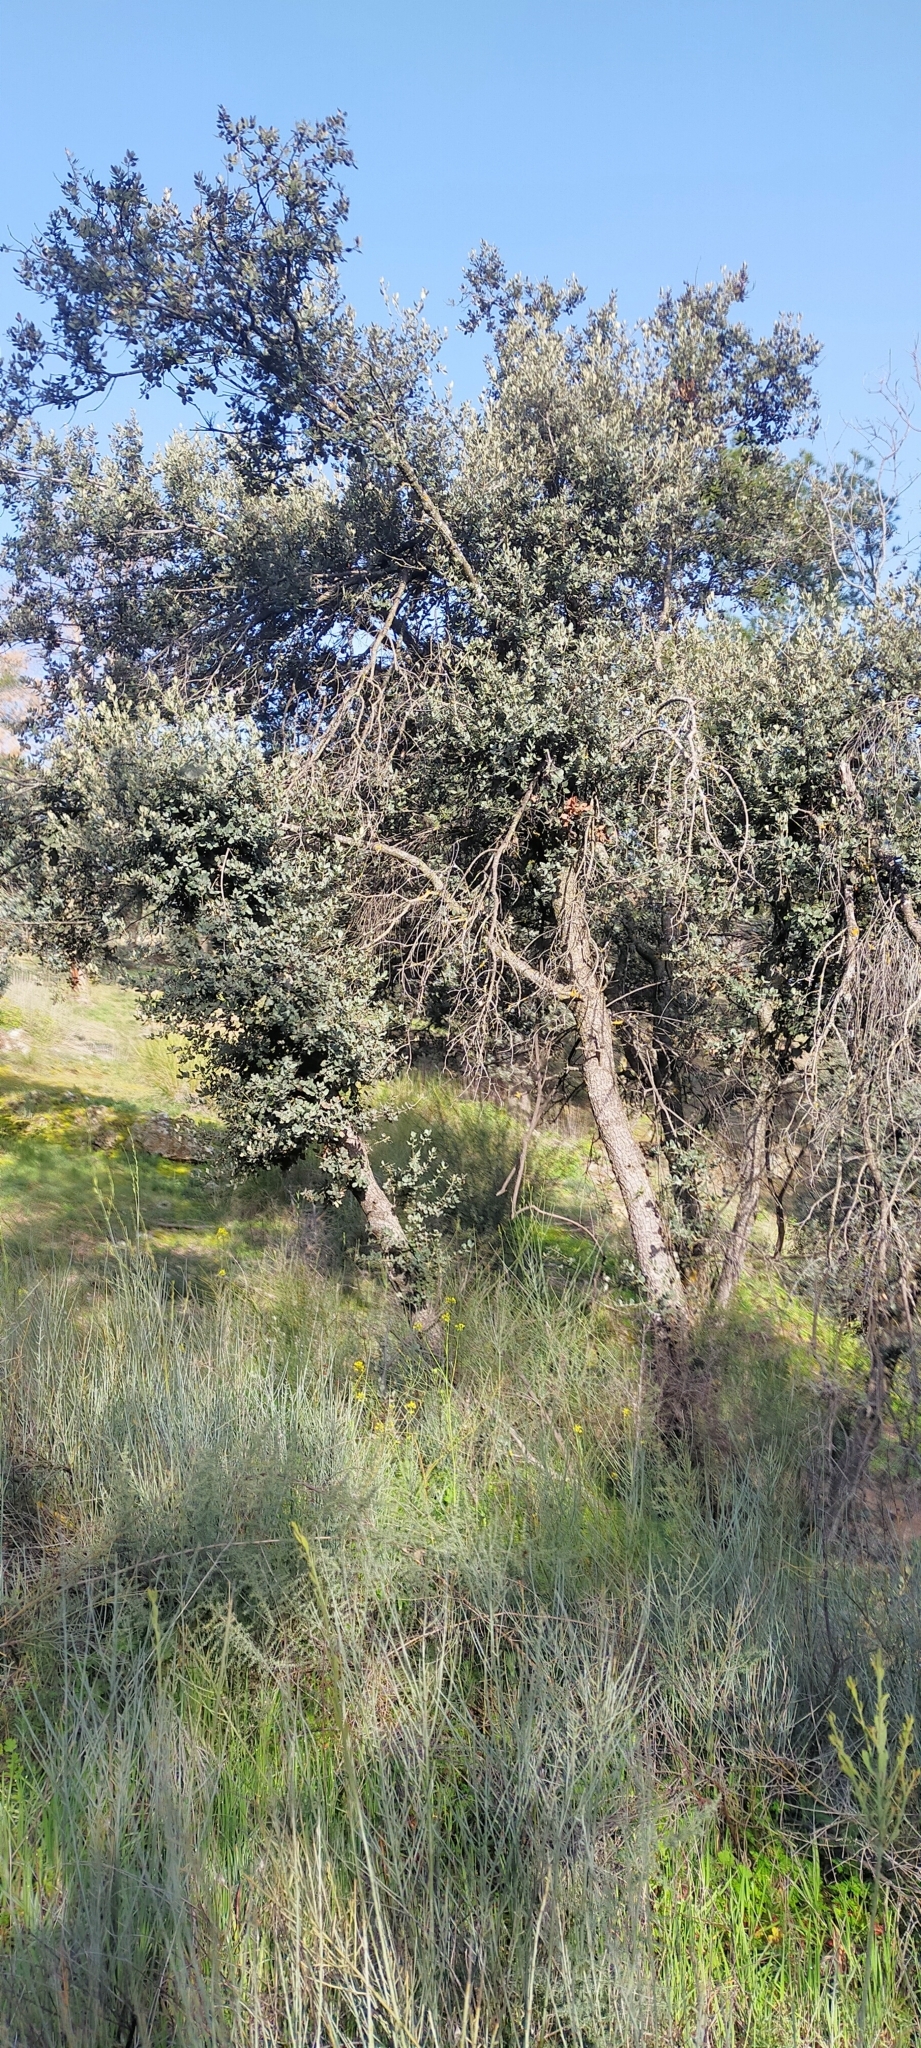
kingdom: Plantae
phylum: Tracheophyta
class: Magnoliopsida
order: Fagales
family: Fagaceae
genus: Quercus
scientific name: Quercus rotundifolia
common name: Holm oak
